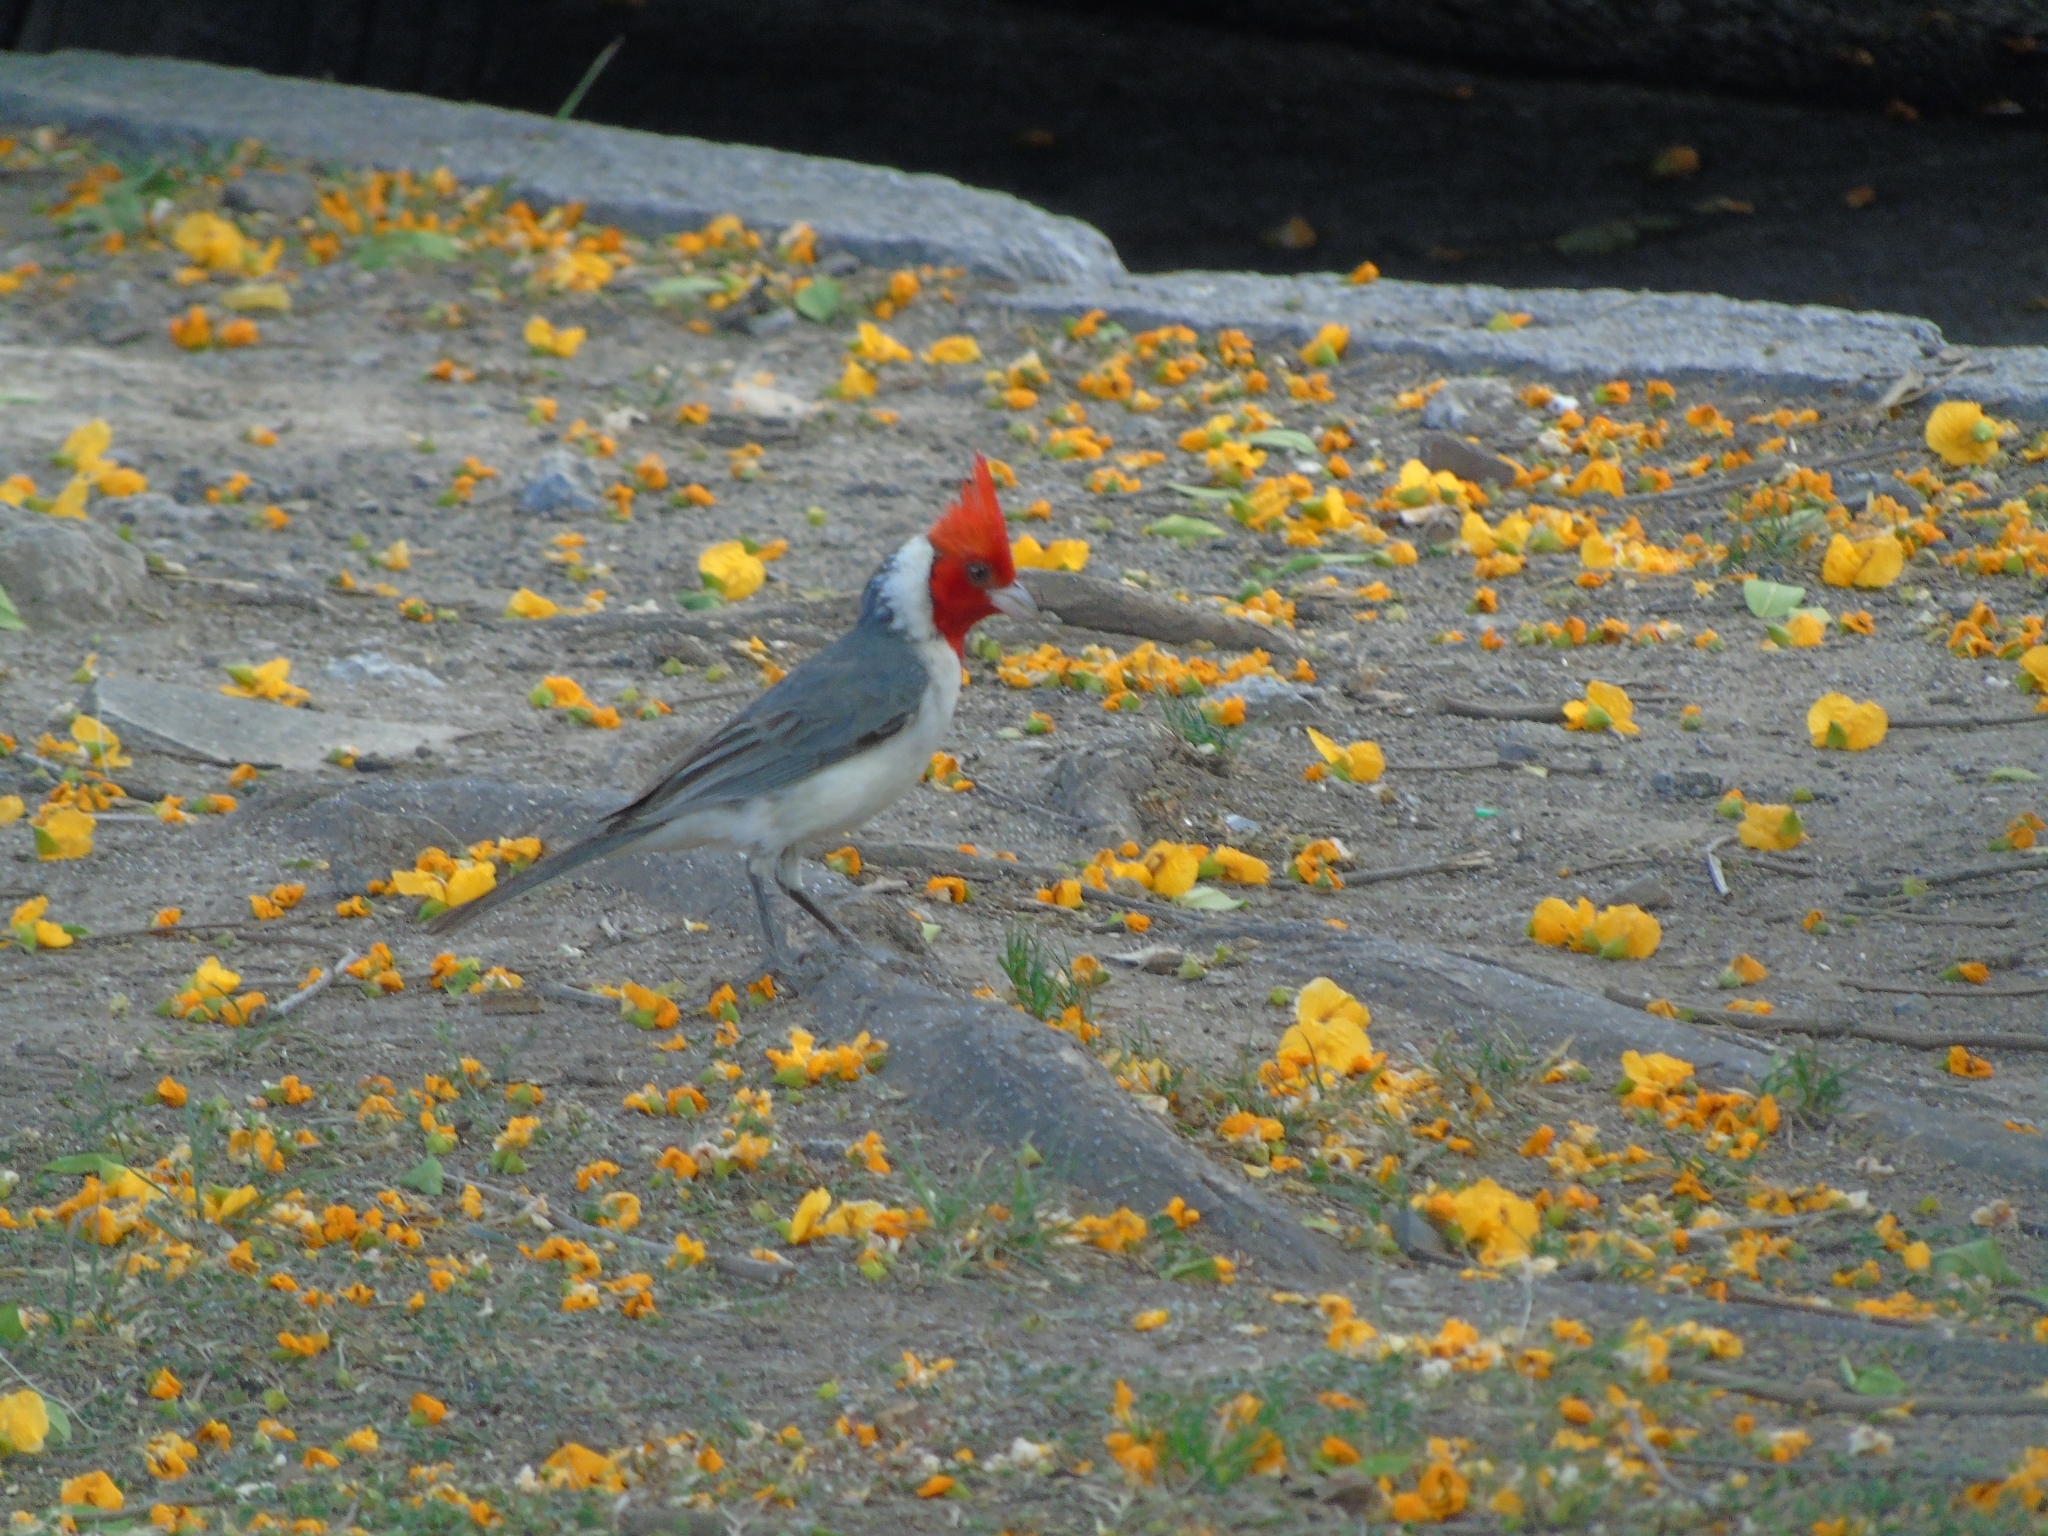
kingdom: Animalia
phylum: Chordata
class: Aves
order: Passeriformes
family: Thraupidae
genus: Paroaria
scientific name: Paroaria coronata
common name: Red-crested cardinal
